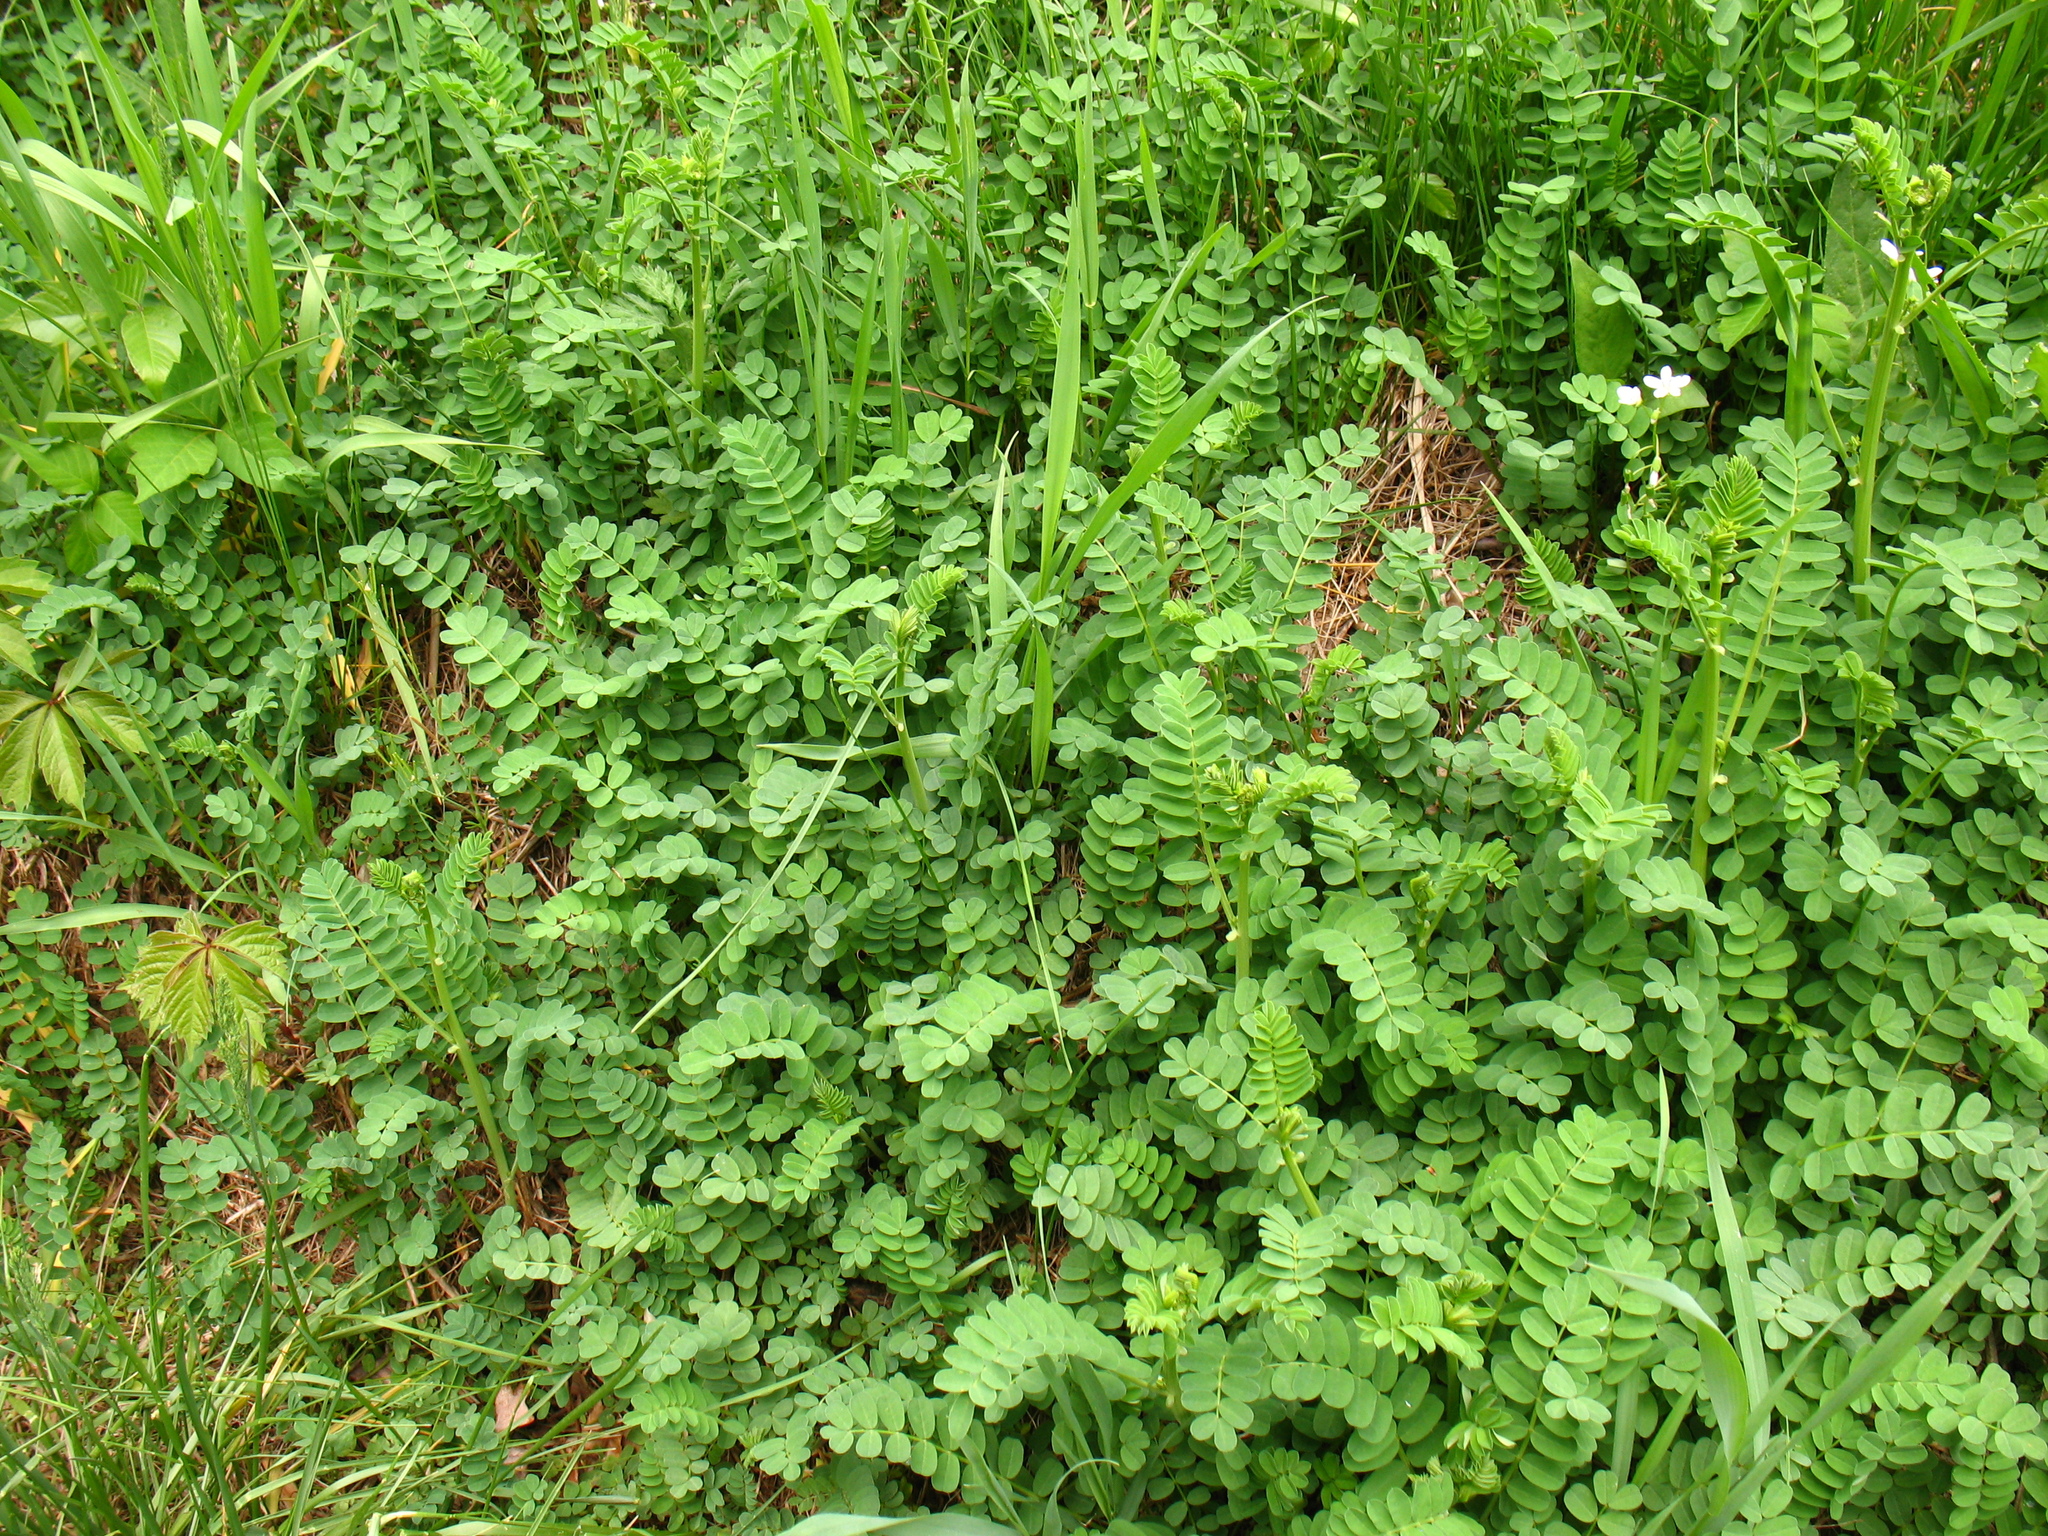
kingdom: Plantae
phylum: Tracheophyta
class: Magnoliopsida
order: Fabales
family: Fabaceae
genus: Coronilla
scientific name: Coronilla varia
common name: Crownvetch
